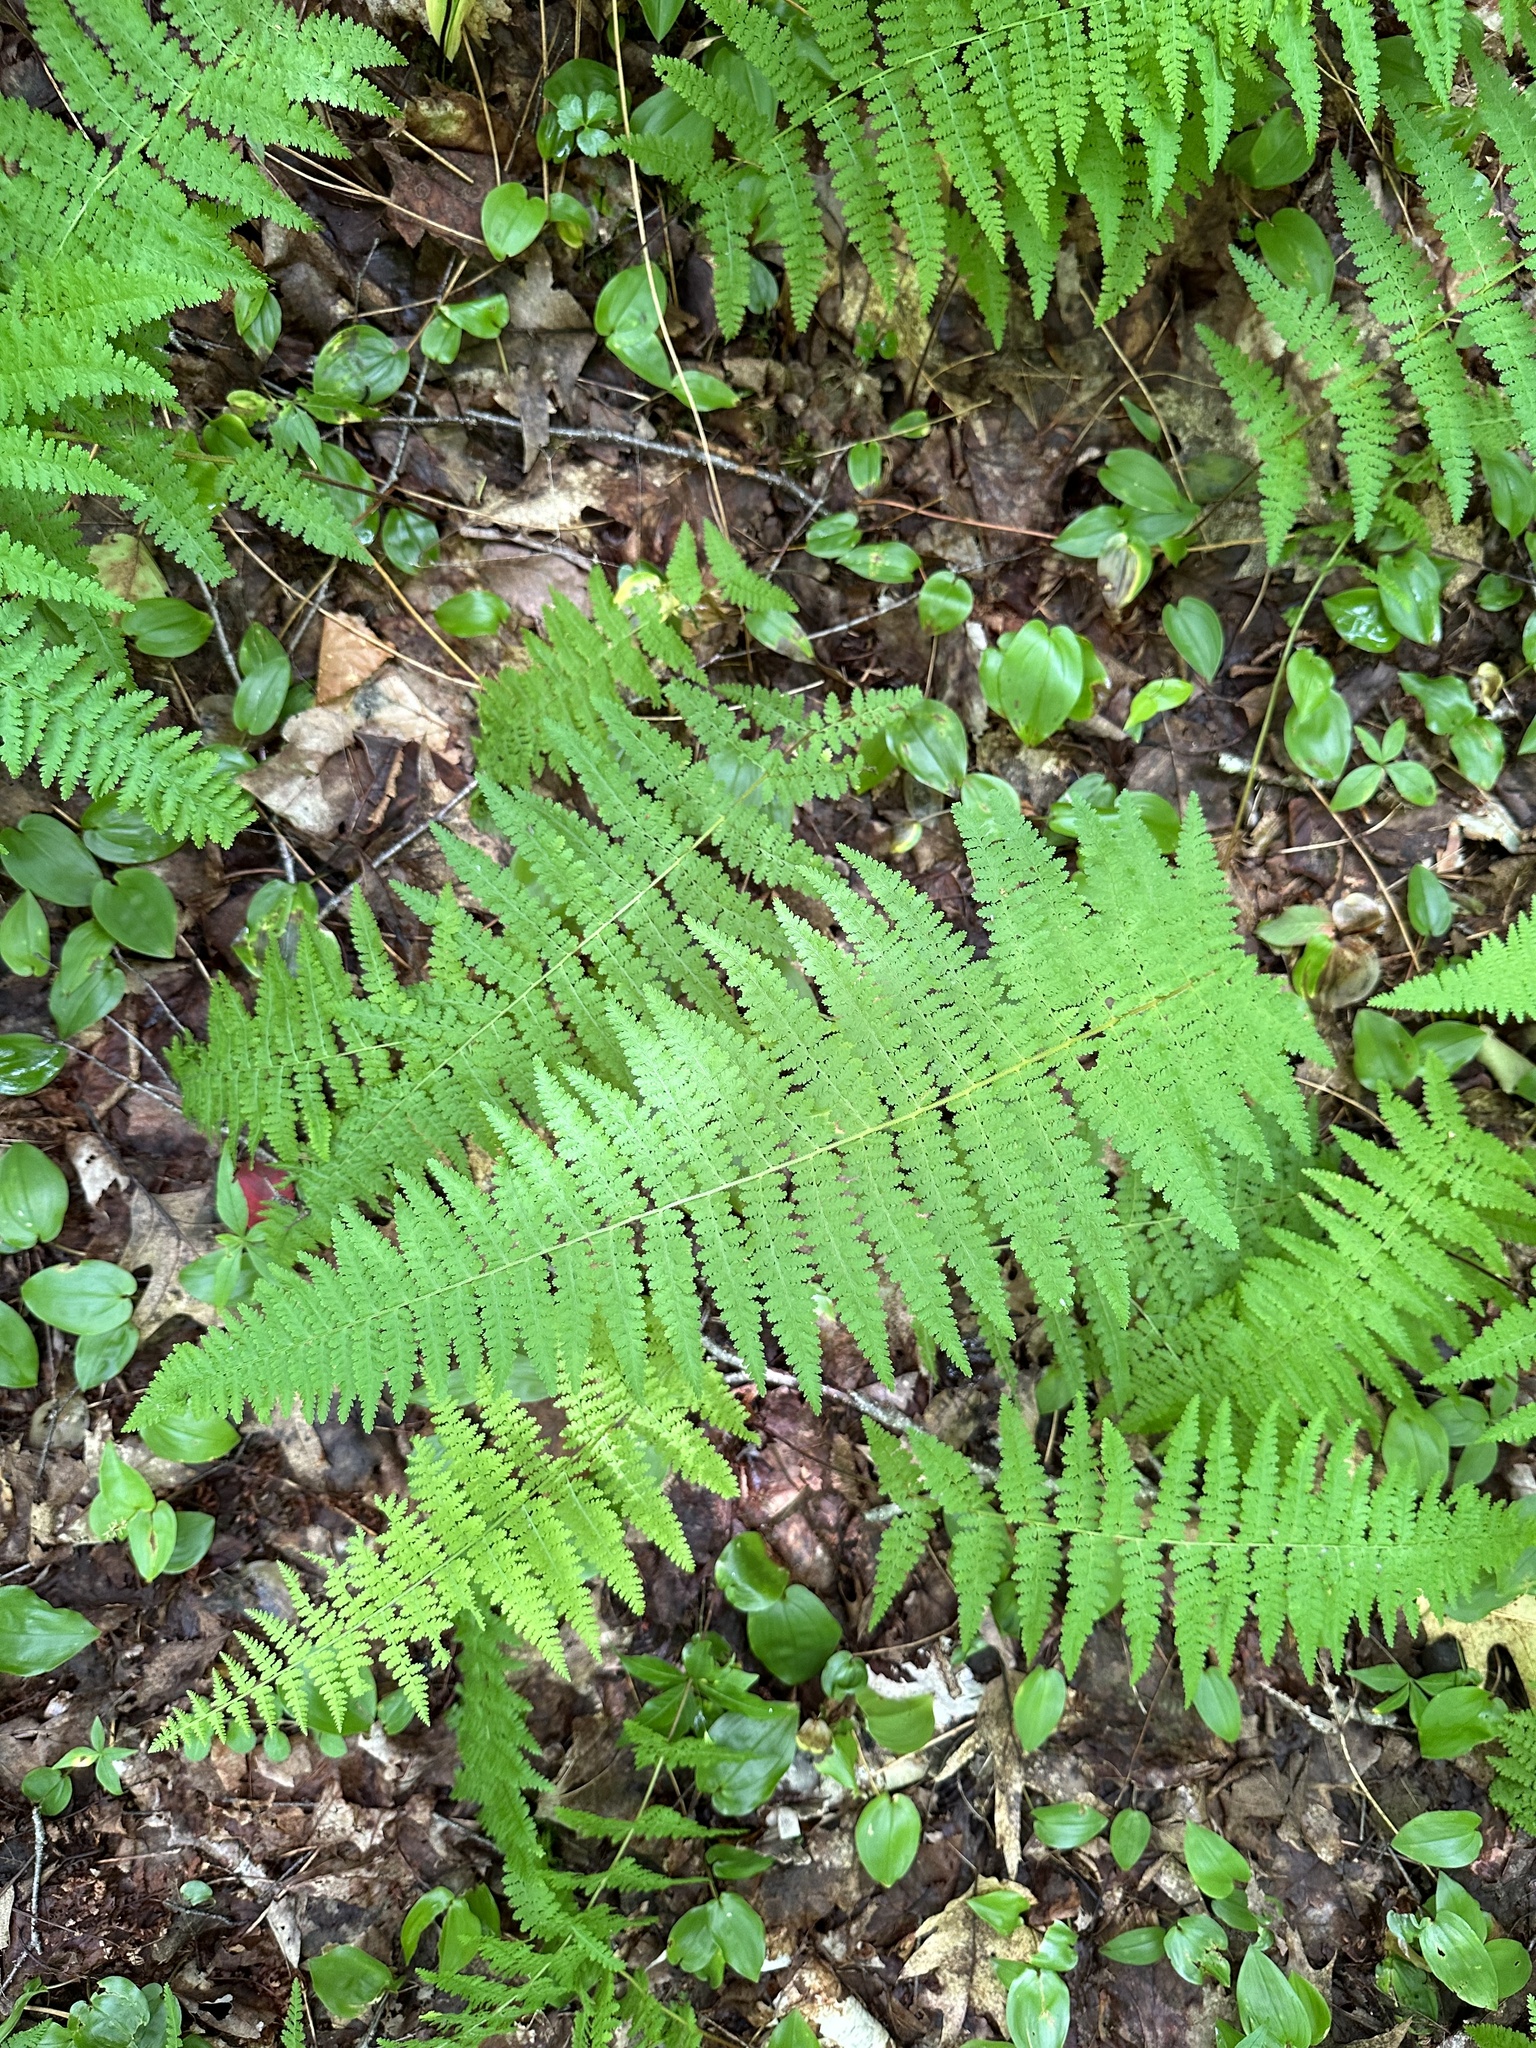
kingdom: Plantae
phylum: Tracheophyta
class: Polypodiopsida
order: Polypodiales
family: Dennstaedtiaceae
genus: Sitobolium
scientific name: Sitobolium punctilobum
